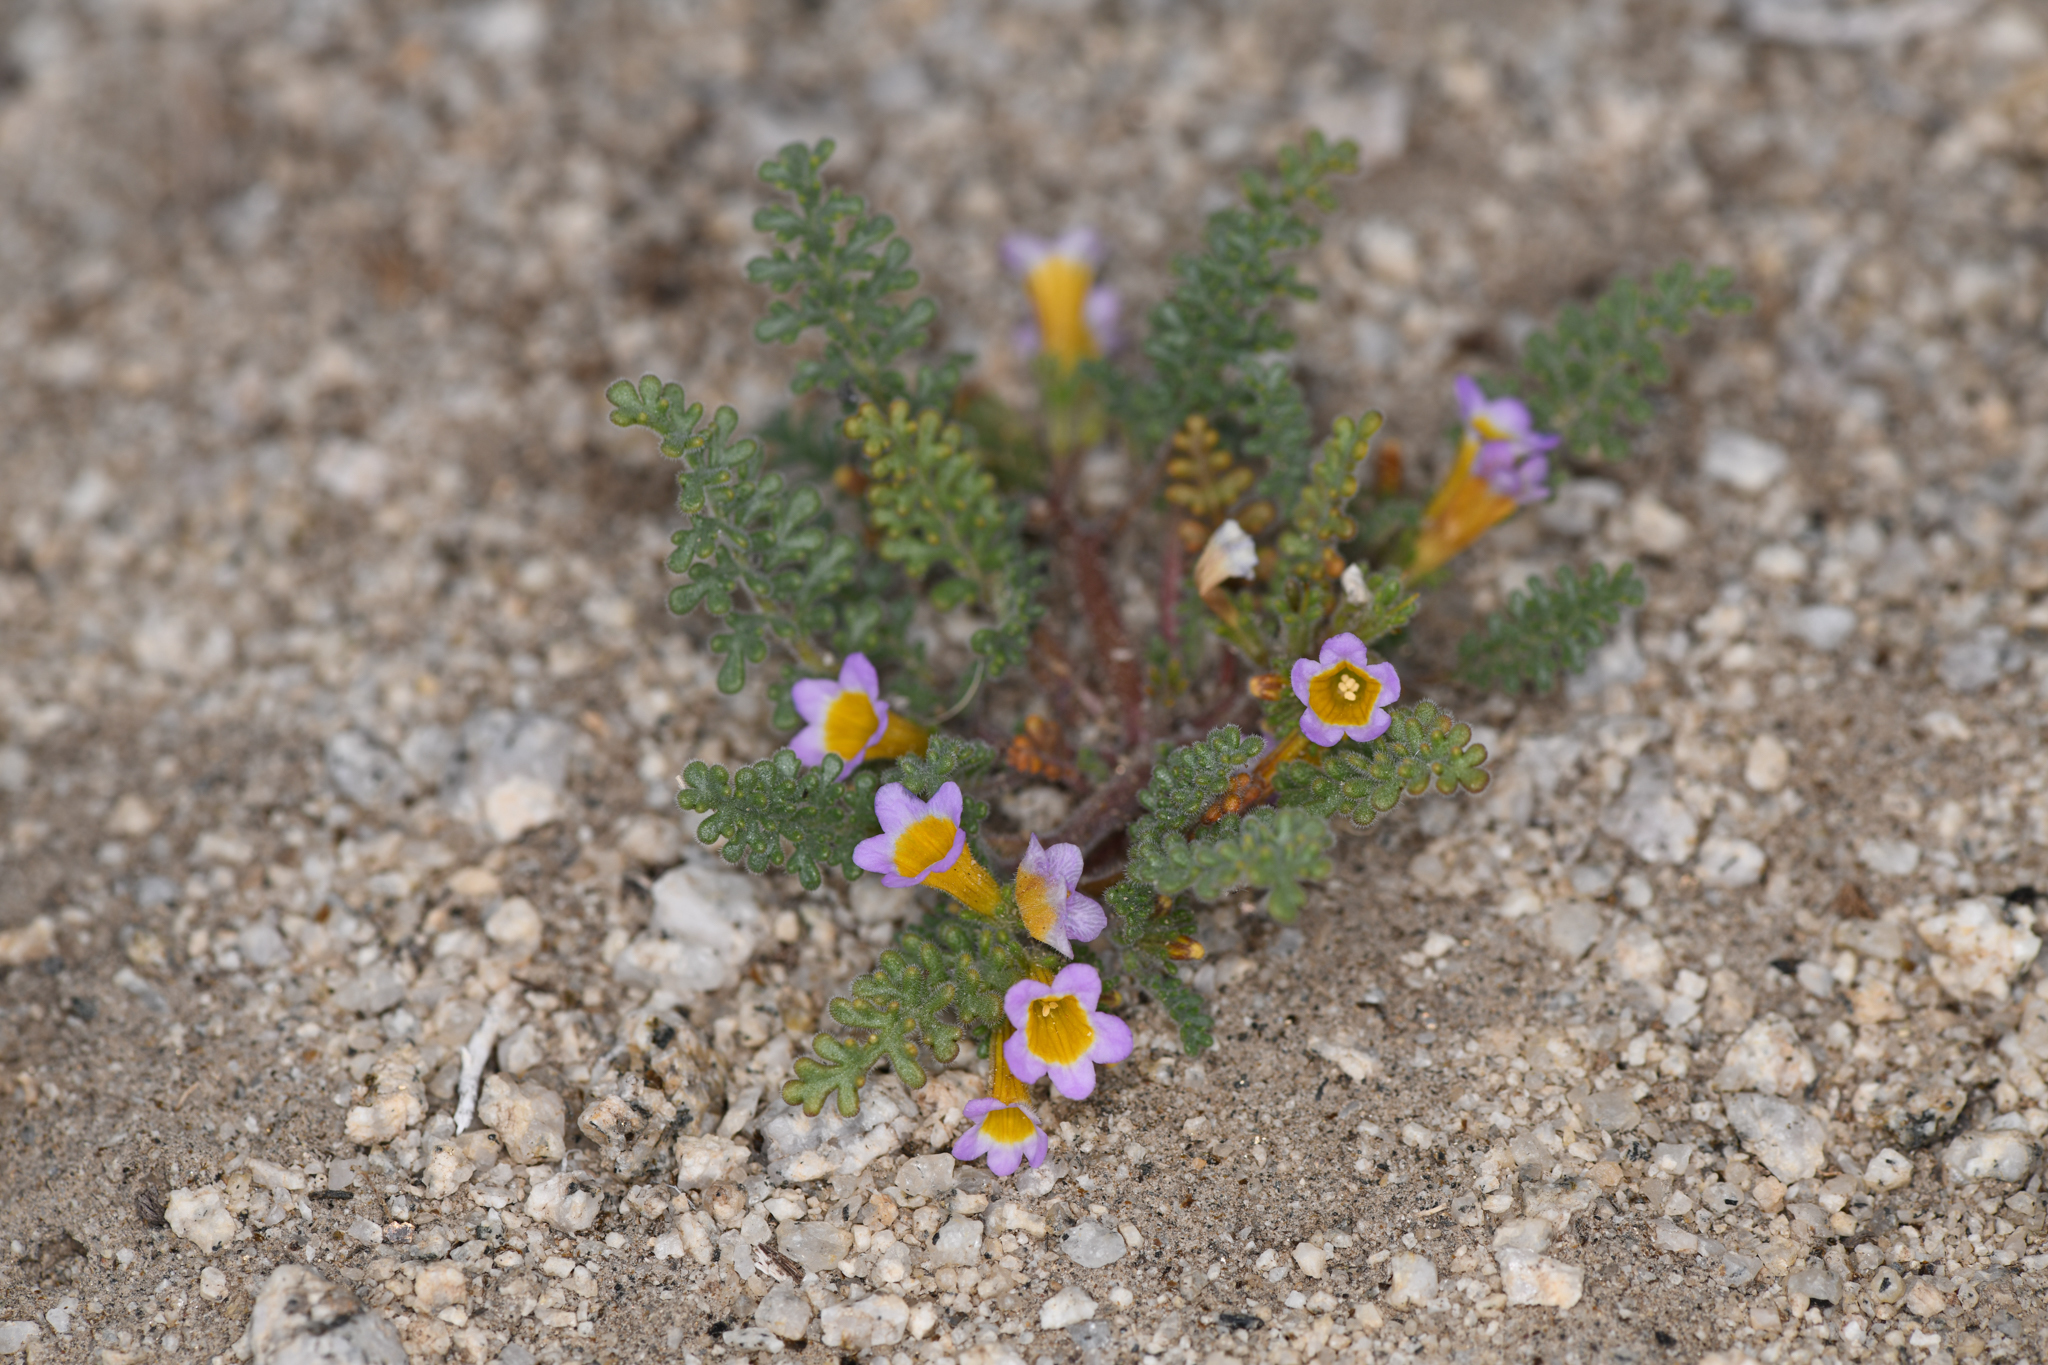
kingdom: Plantae
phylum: Tracheophyta
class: Magnoliopsida
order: Boraginales
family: Hydrophyllaceae
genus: Phacelia
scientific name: Phacelia bicolor
